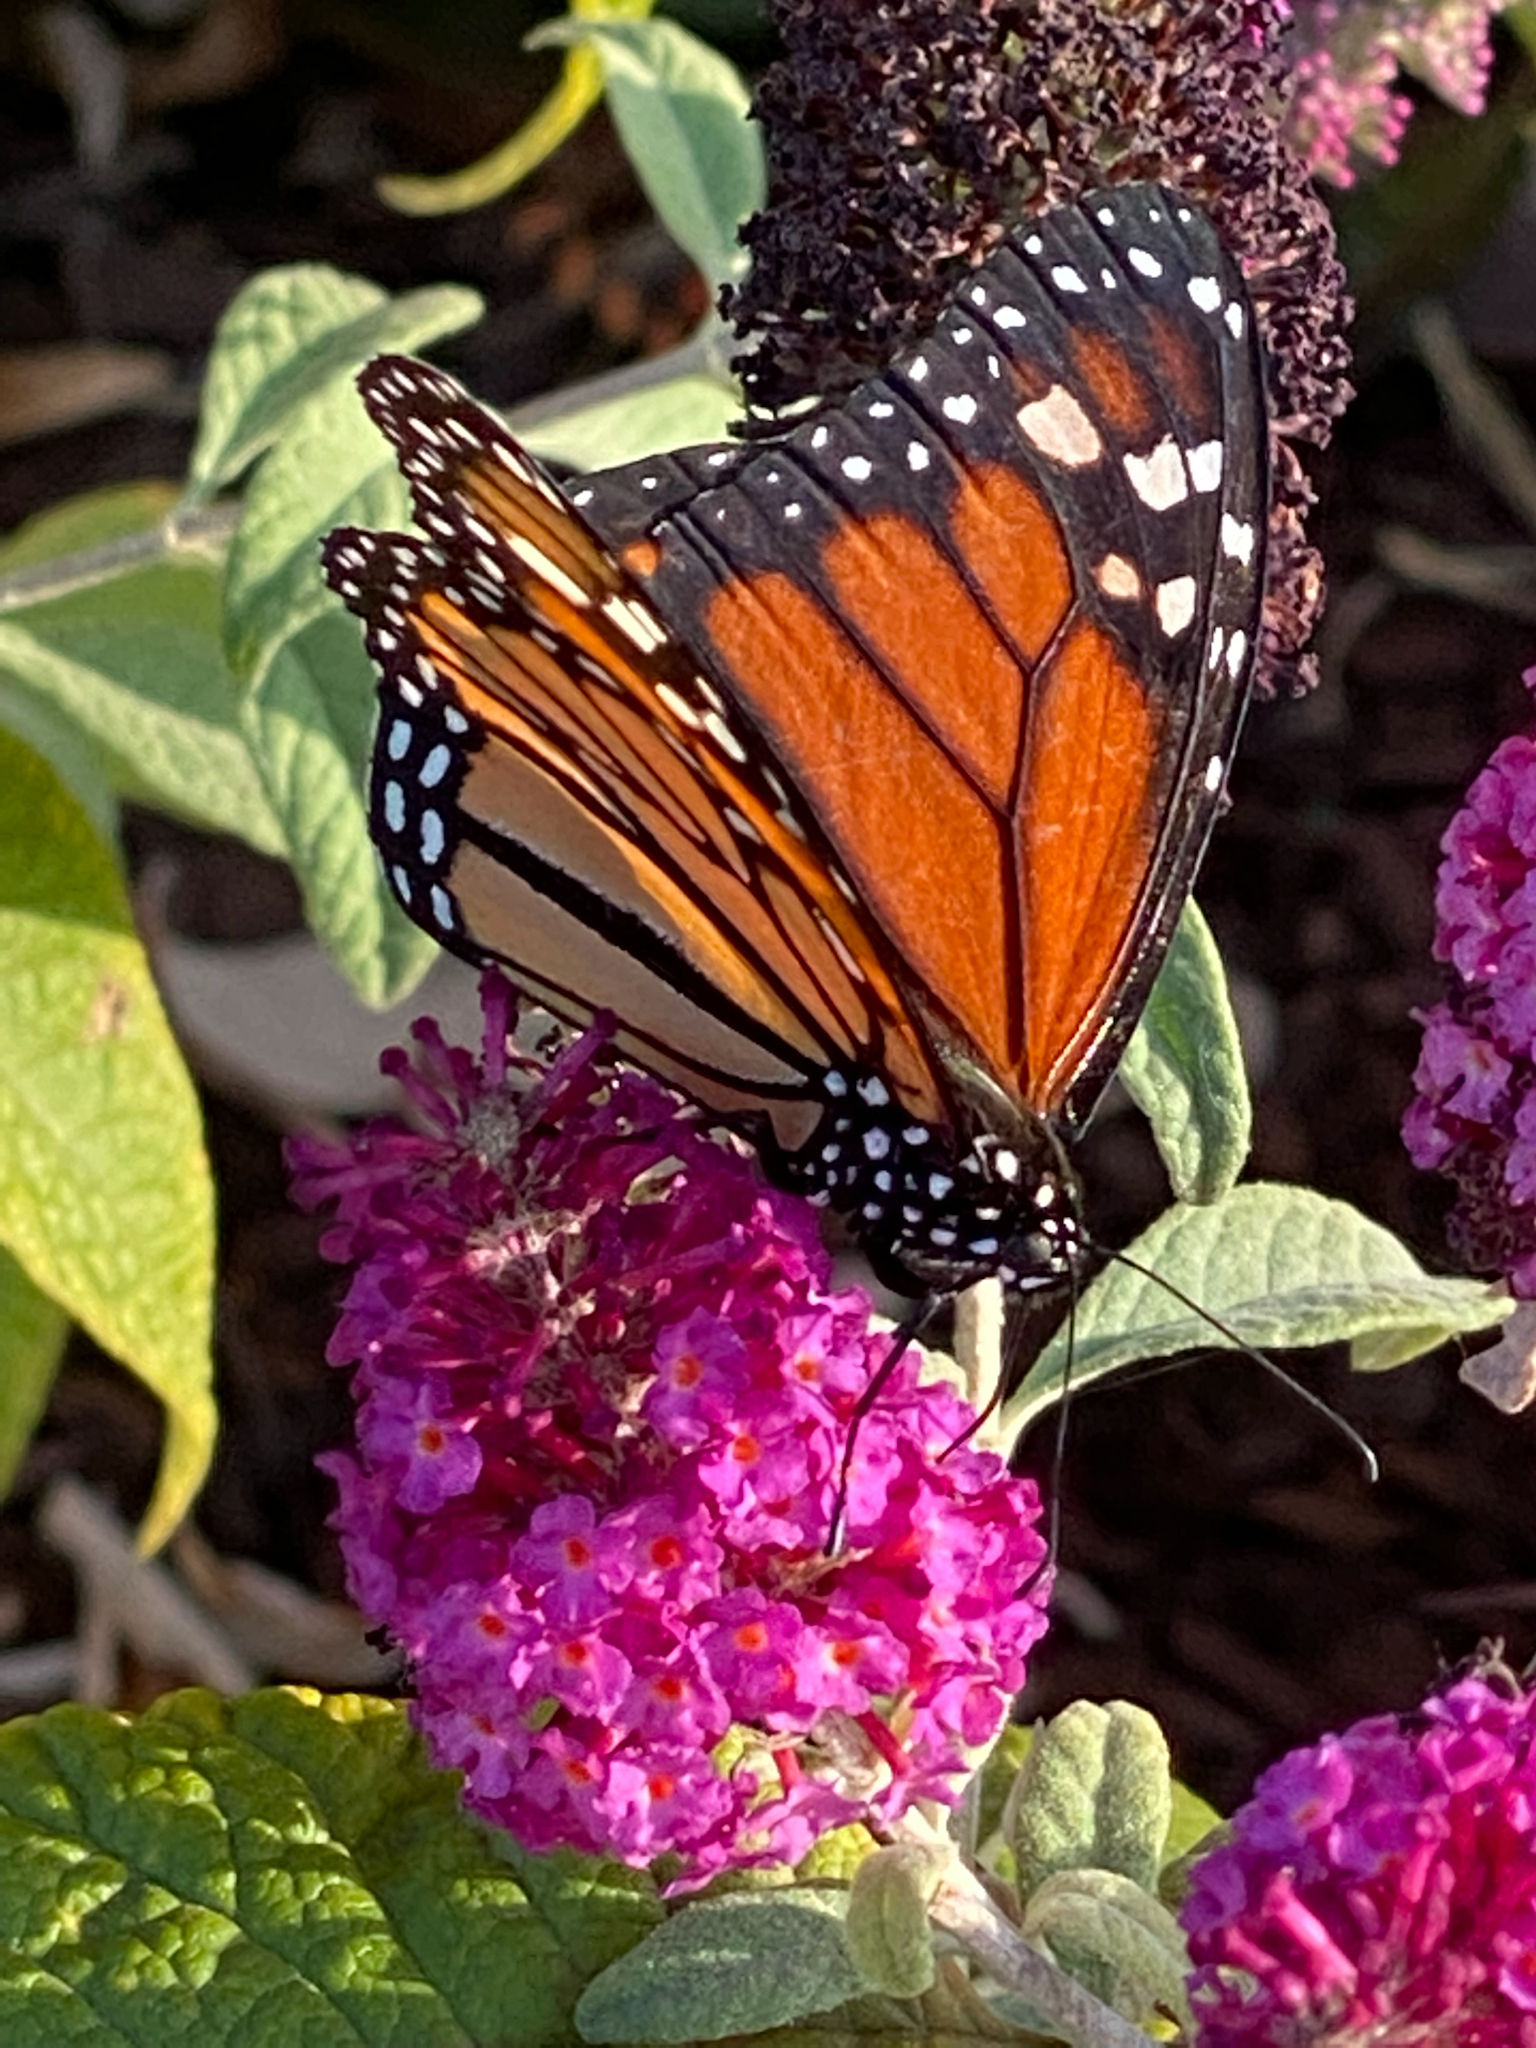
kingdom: Animalia
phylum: Arthropoda
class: Insecta
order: Lepidoptera
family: Nymphalidae
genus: Danaus
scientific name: Danaus plexippus
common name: Monarch
